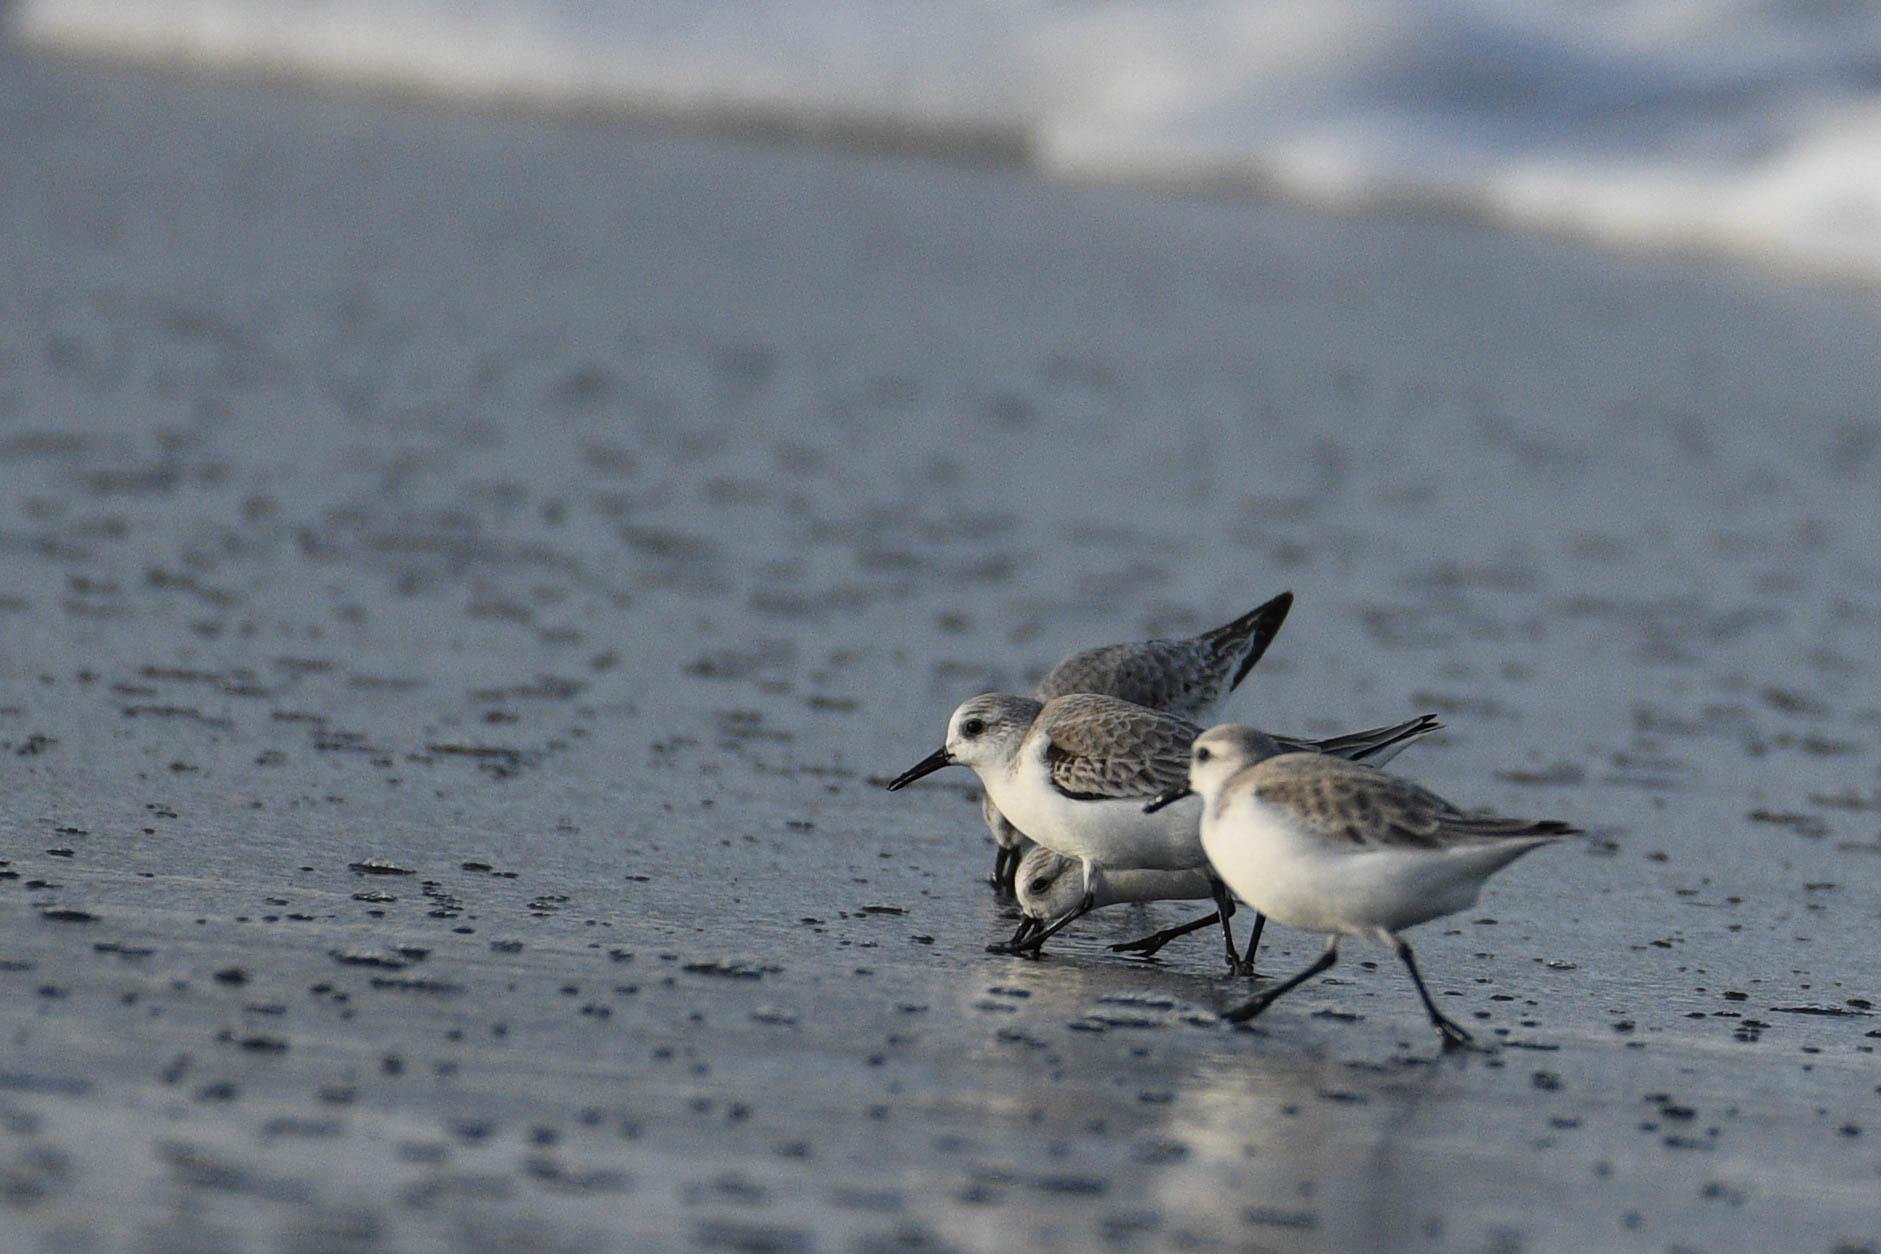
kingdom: Animalia
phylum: Chordata
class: Aves
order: Charadriiformes
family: Scolopacidae
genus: Calidris
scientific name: Calidris alba
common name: Sanderling
